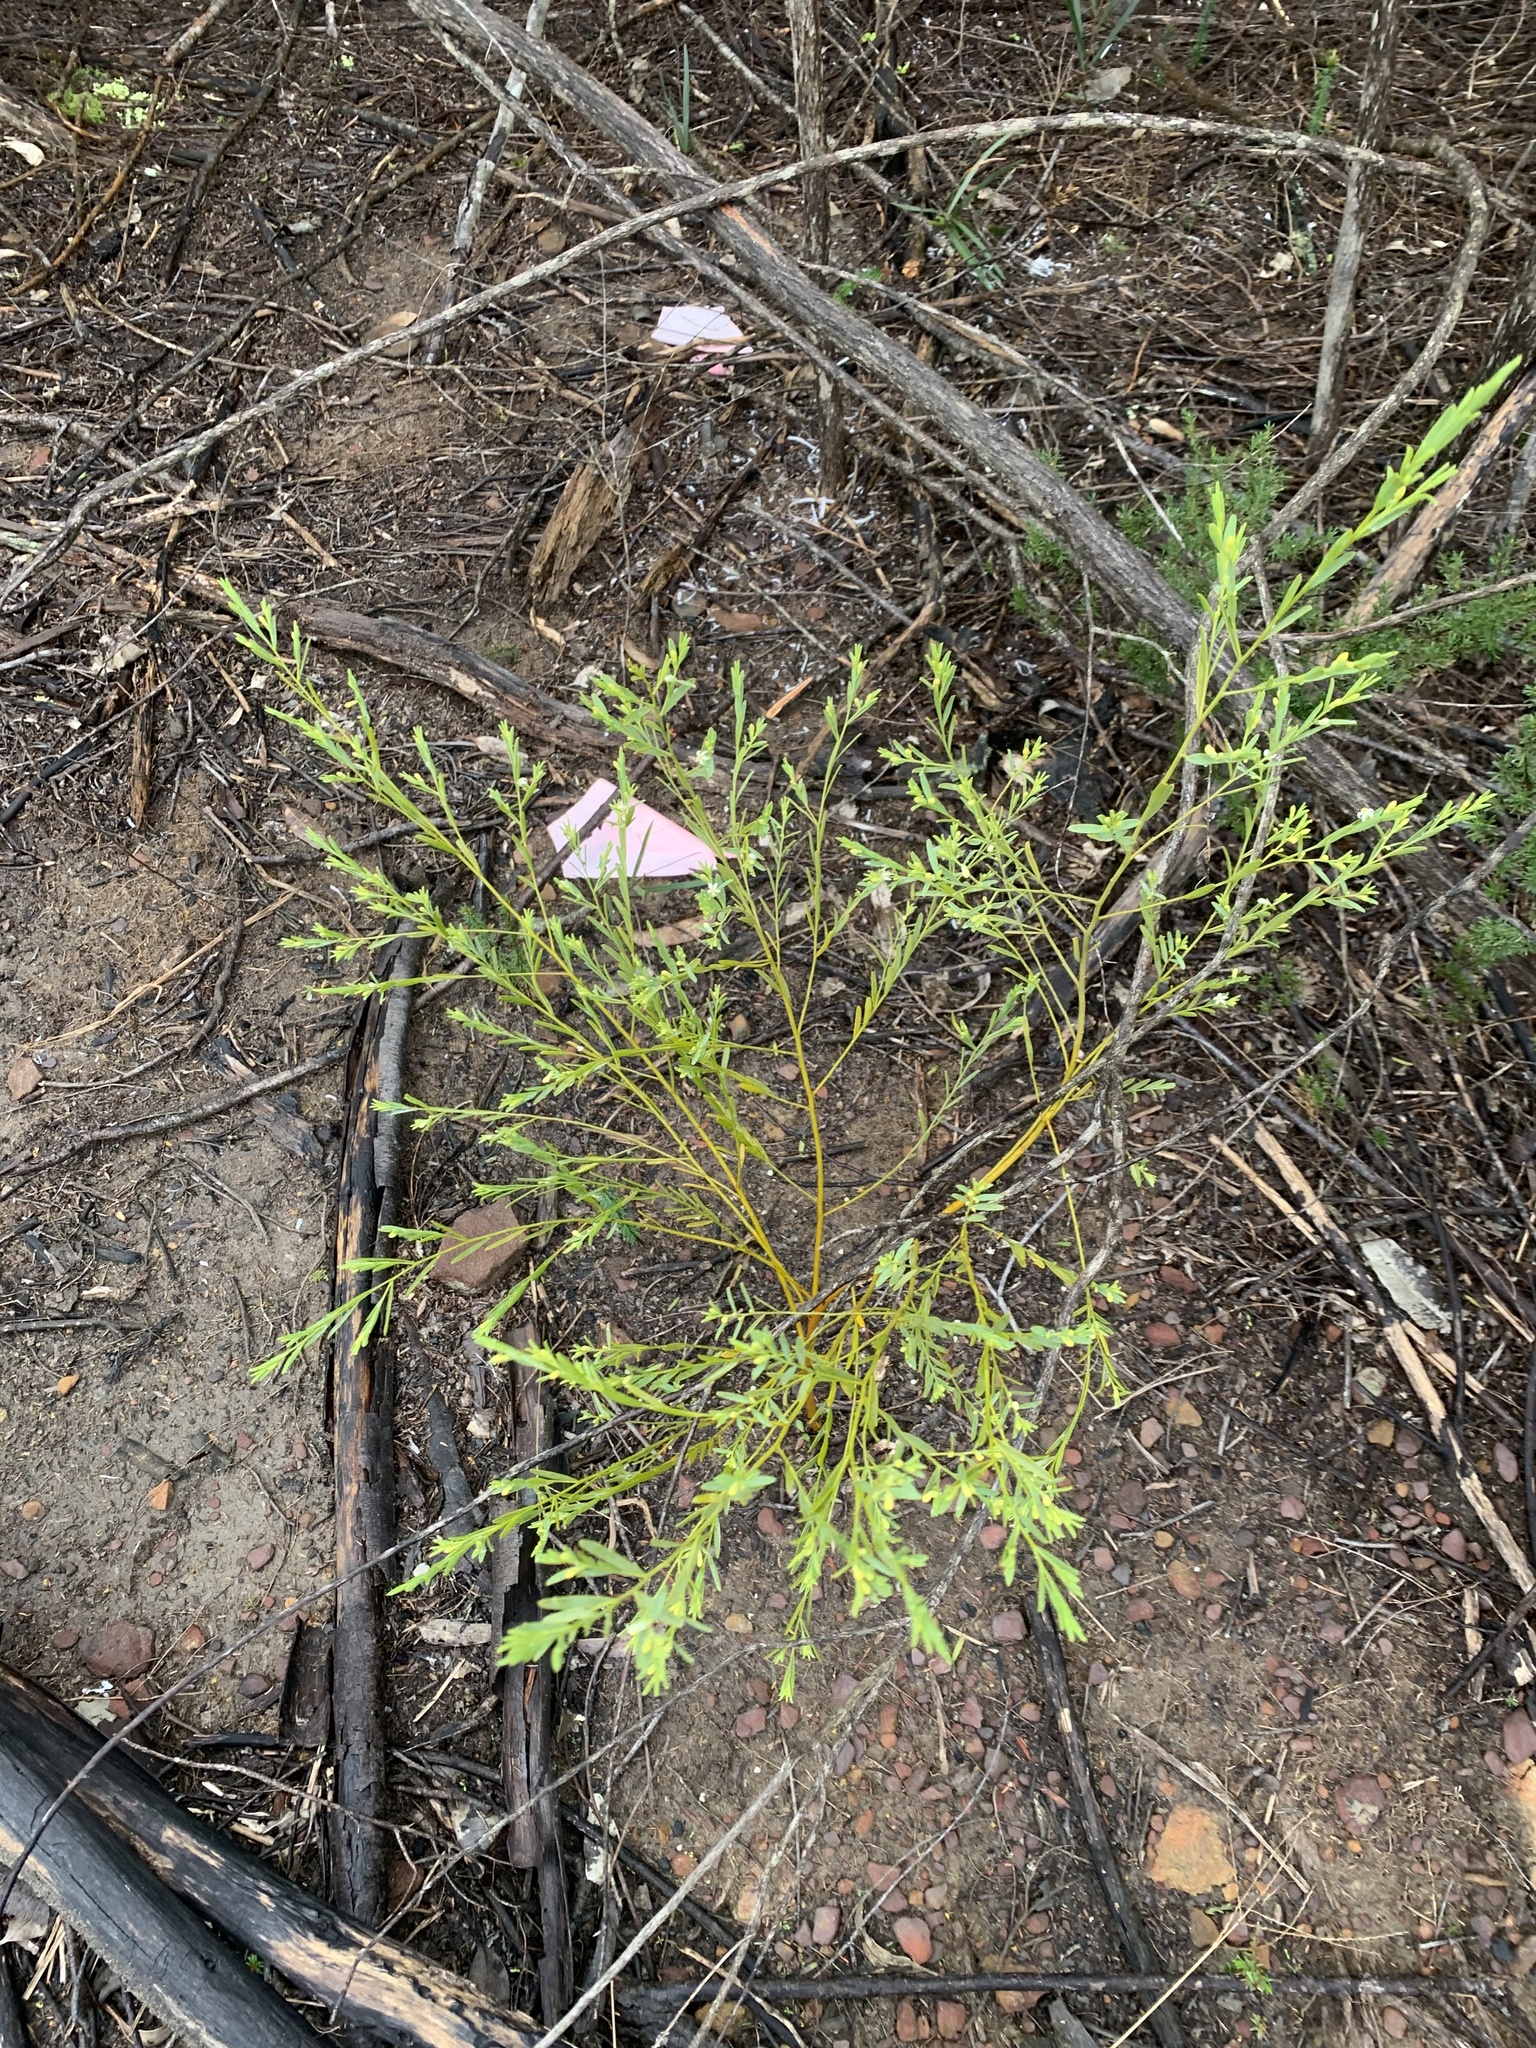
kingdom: Plantae
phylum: Tracheophyta
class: Magnoliopsida
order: Santalales
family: Olacaceae
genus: Olax
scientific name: Olax stricta
